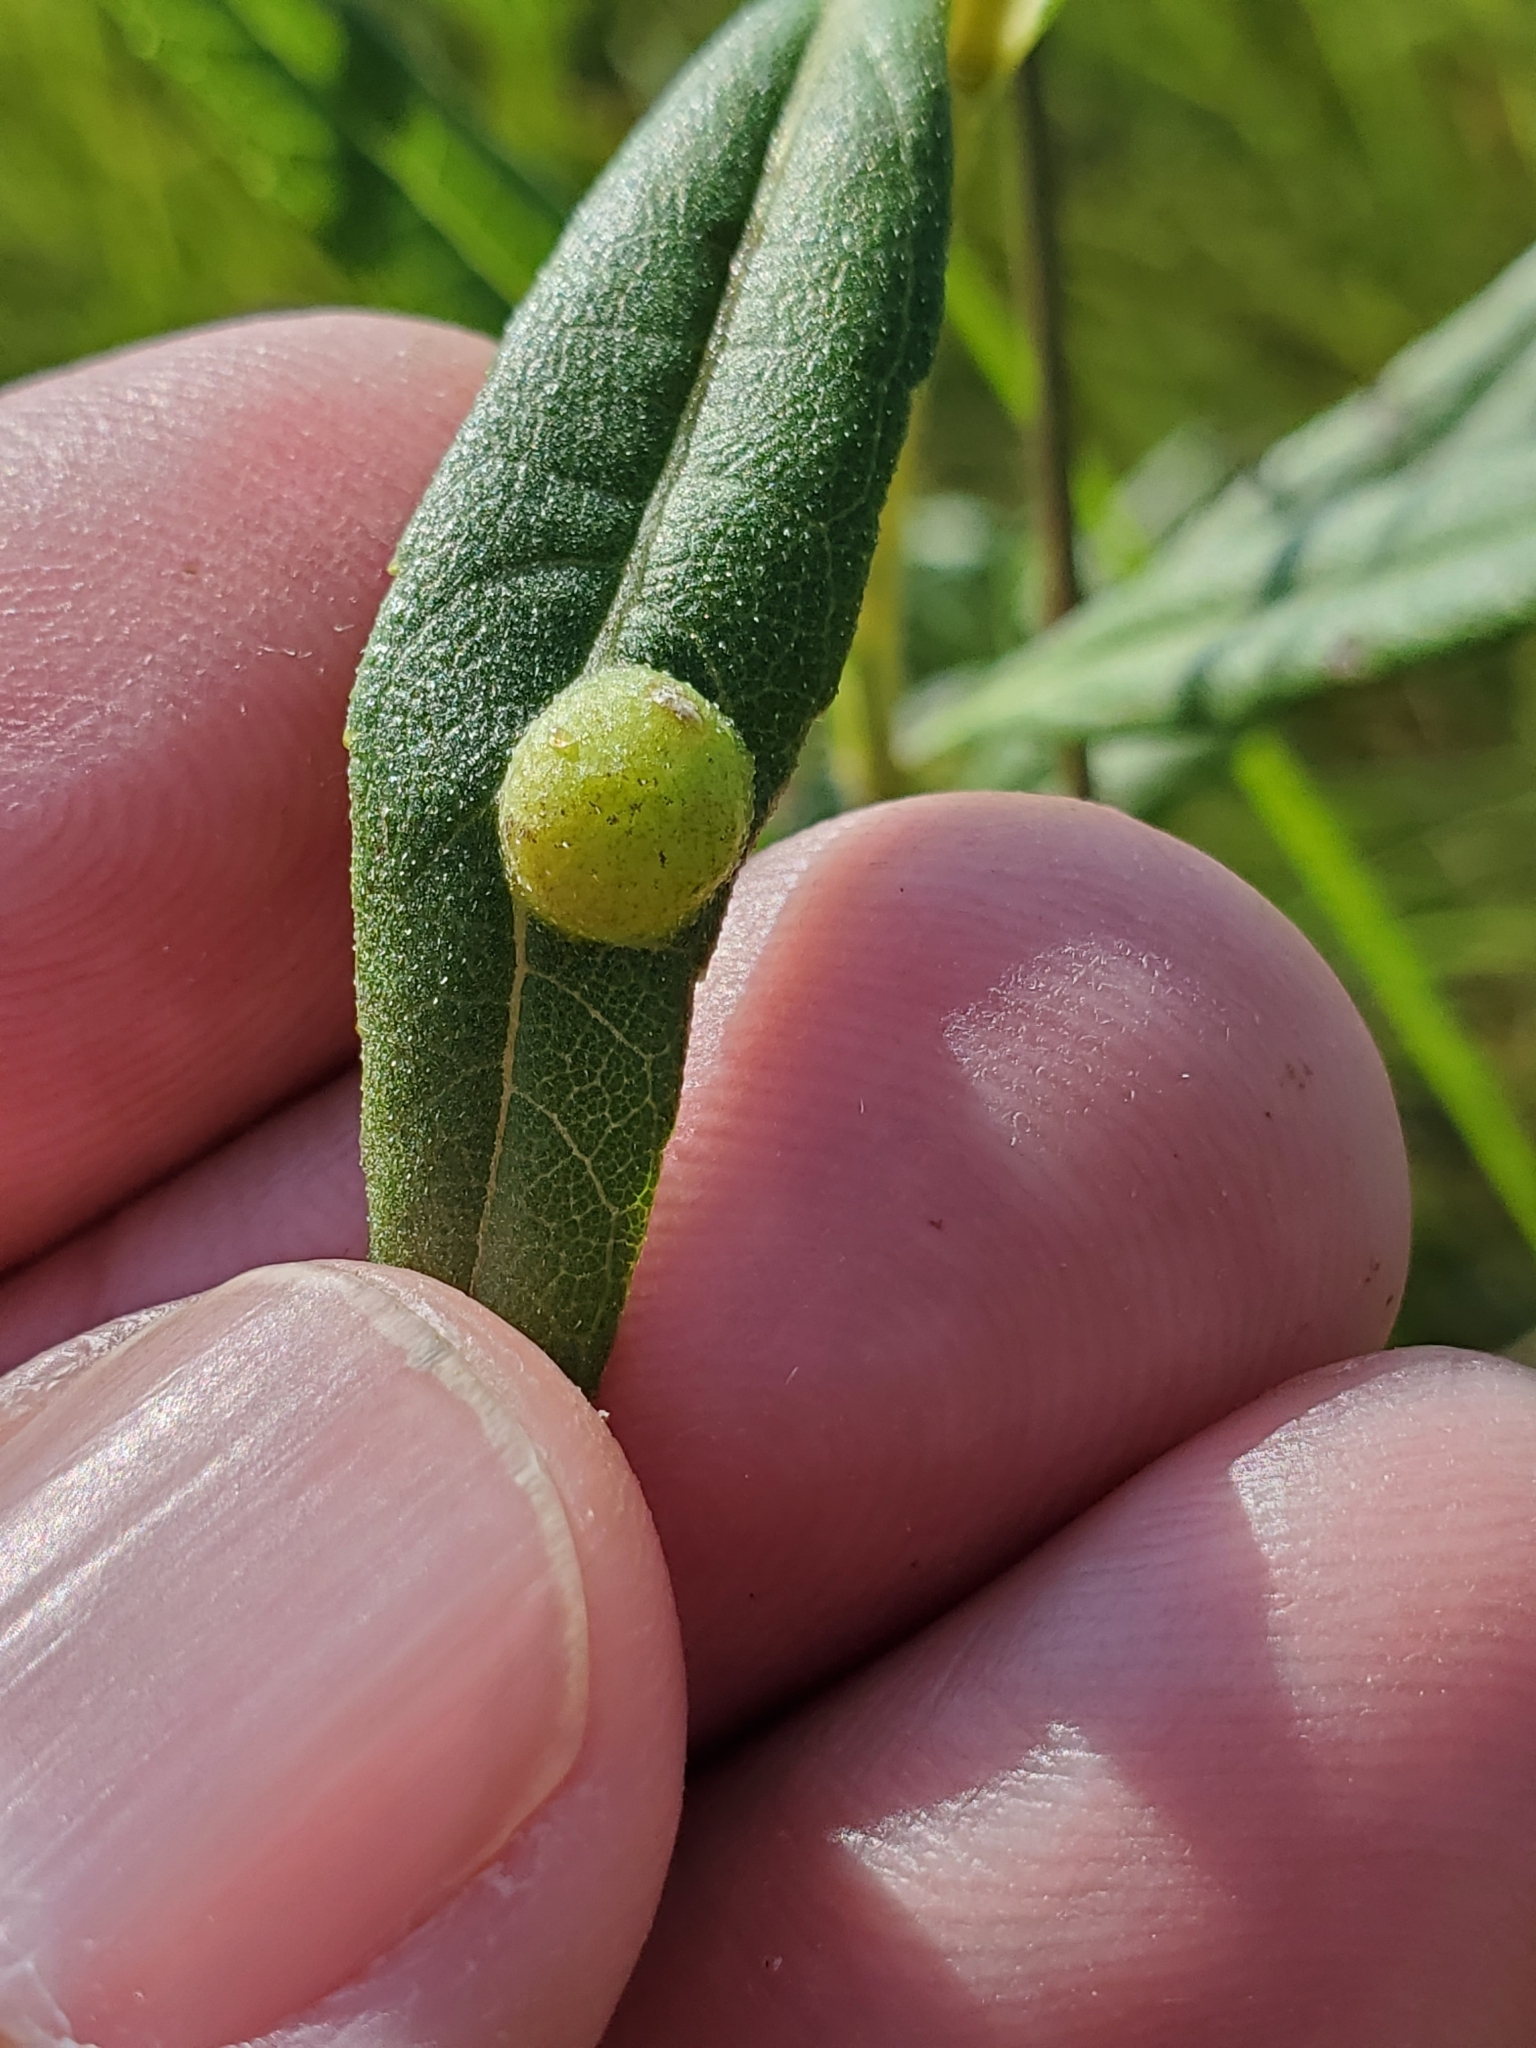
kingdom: Animalia
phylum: Arthropoda
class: Insecta
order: Diptera
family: Cecidomyiidae
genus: Pilodiplosis
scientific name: Pilodiplosis helianthibulla
